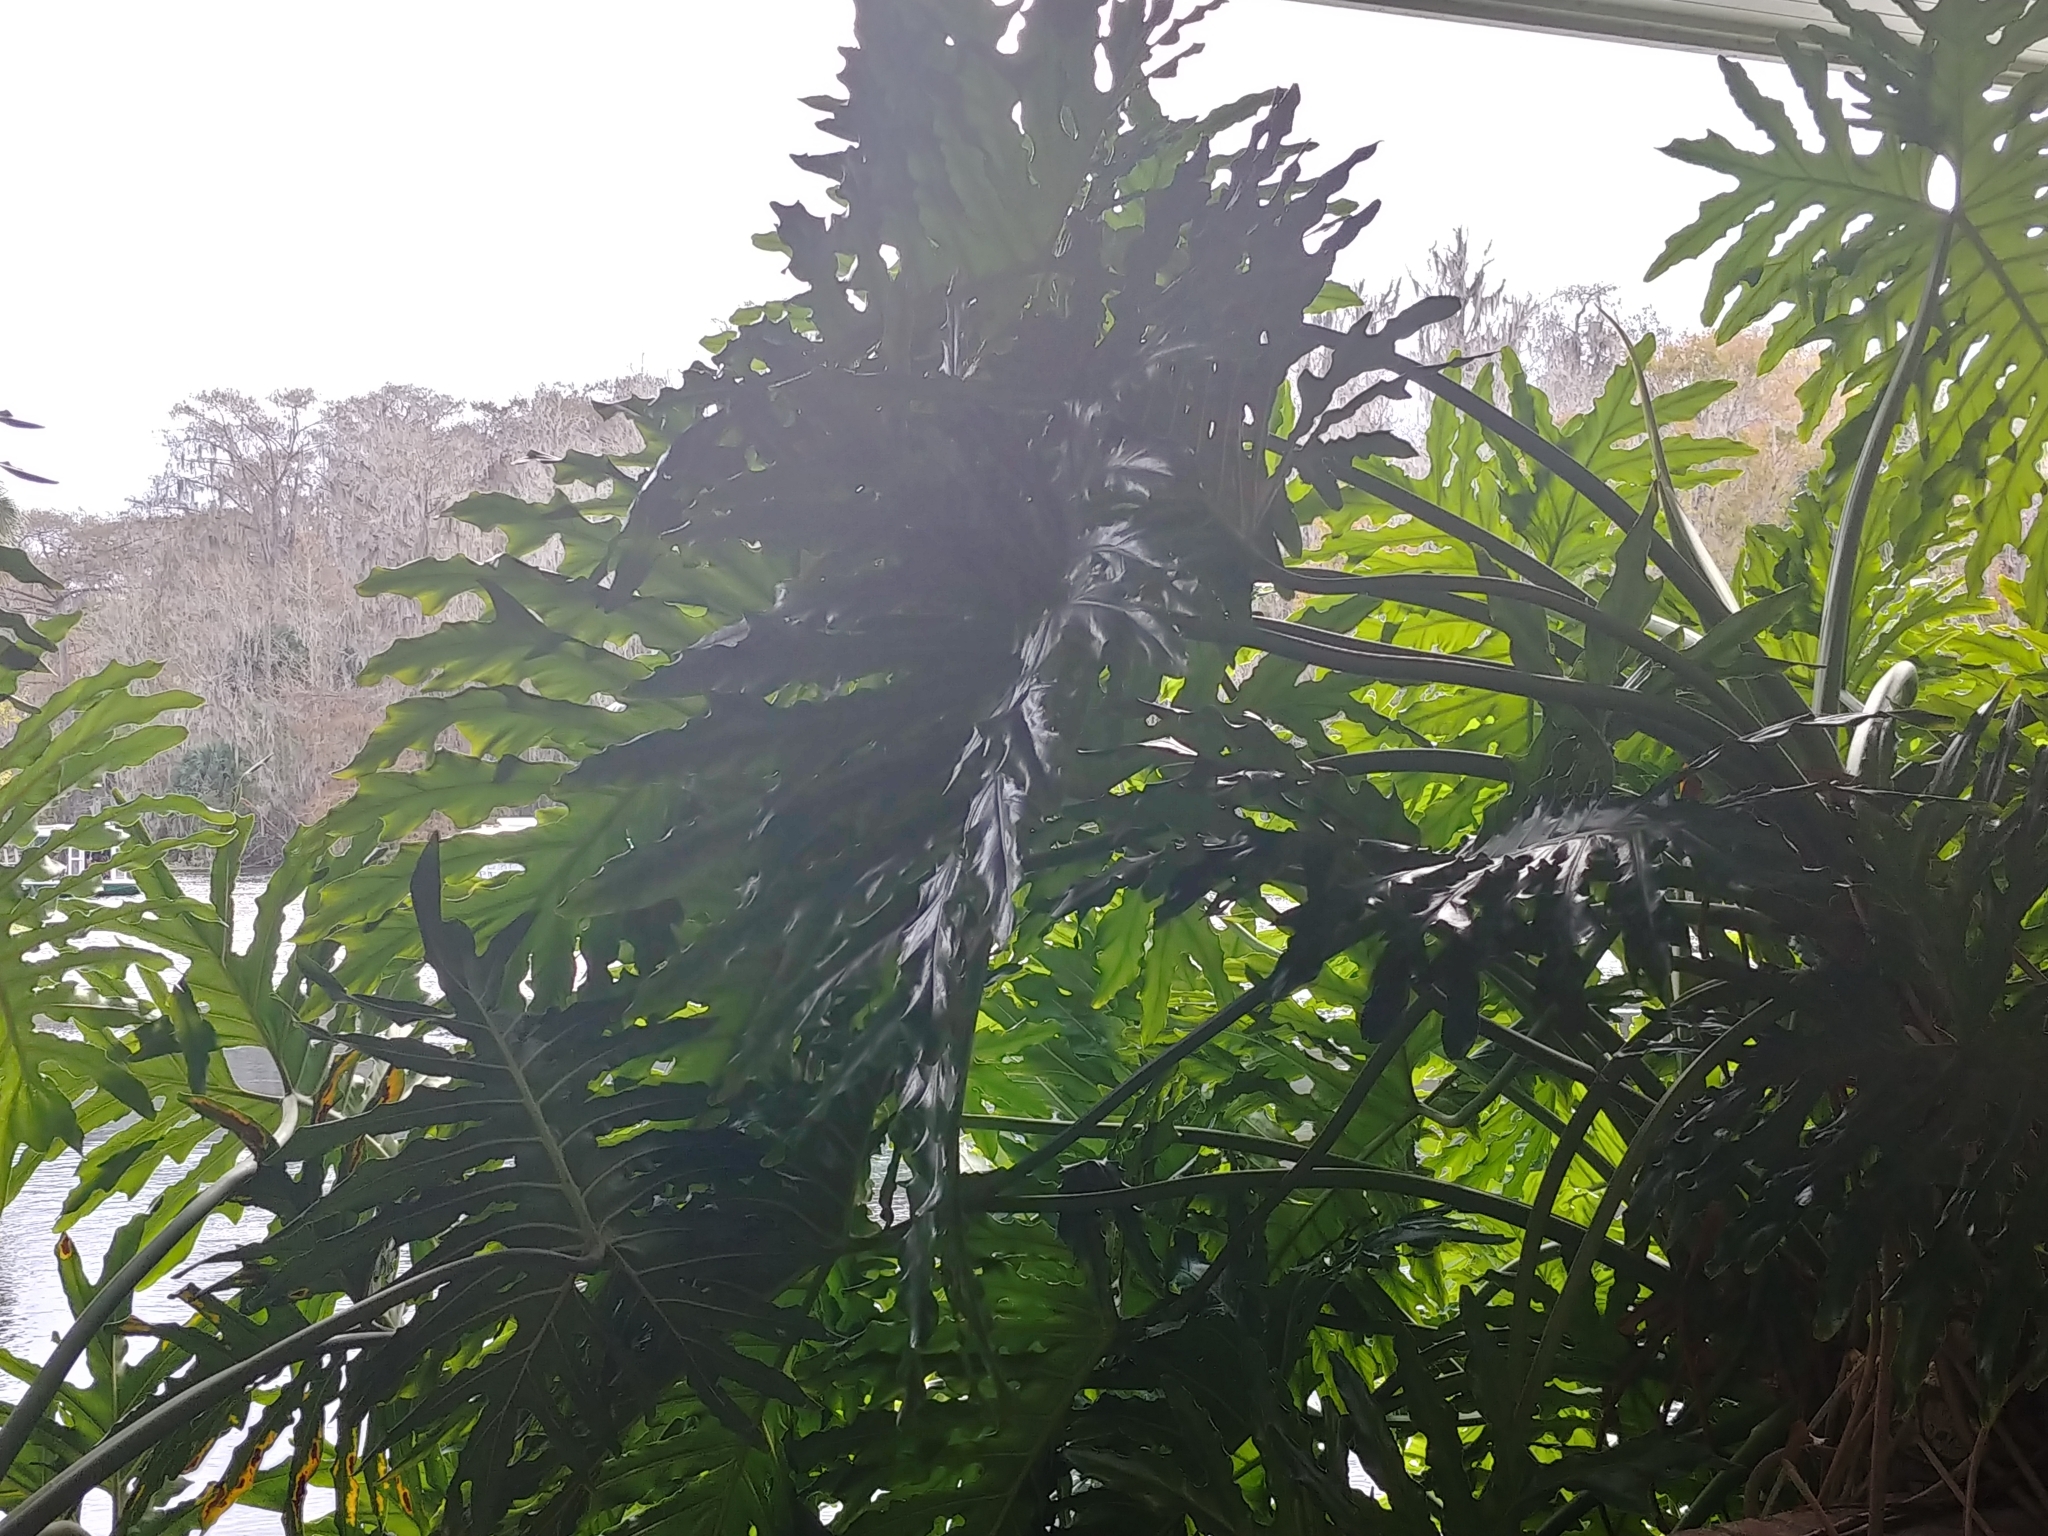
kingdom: Plantae
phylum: Tracheophyta
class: Liliopsida
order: Alismatales
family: Araceae
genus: Thaumatophyllum
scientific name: Thaumatophyllum bipinnatifidum
